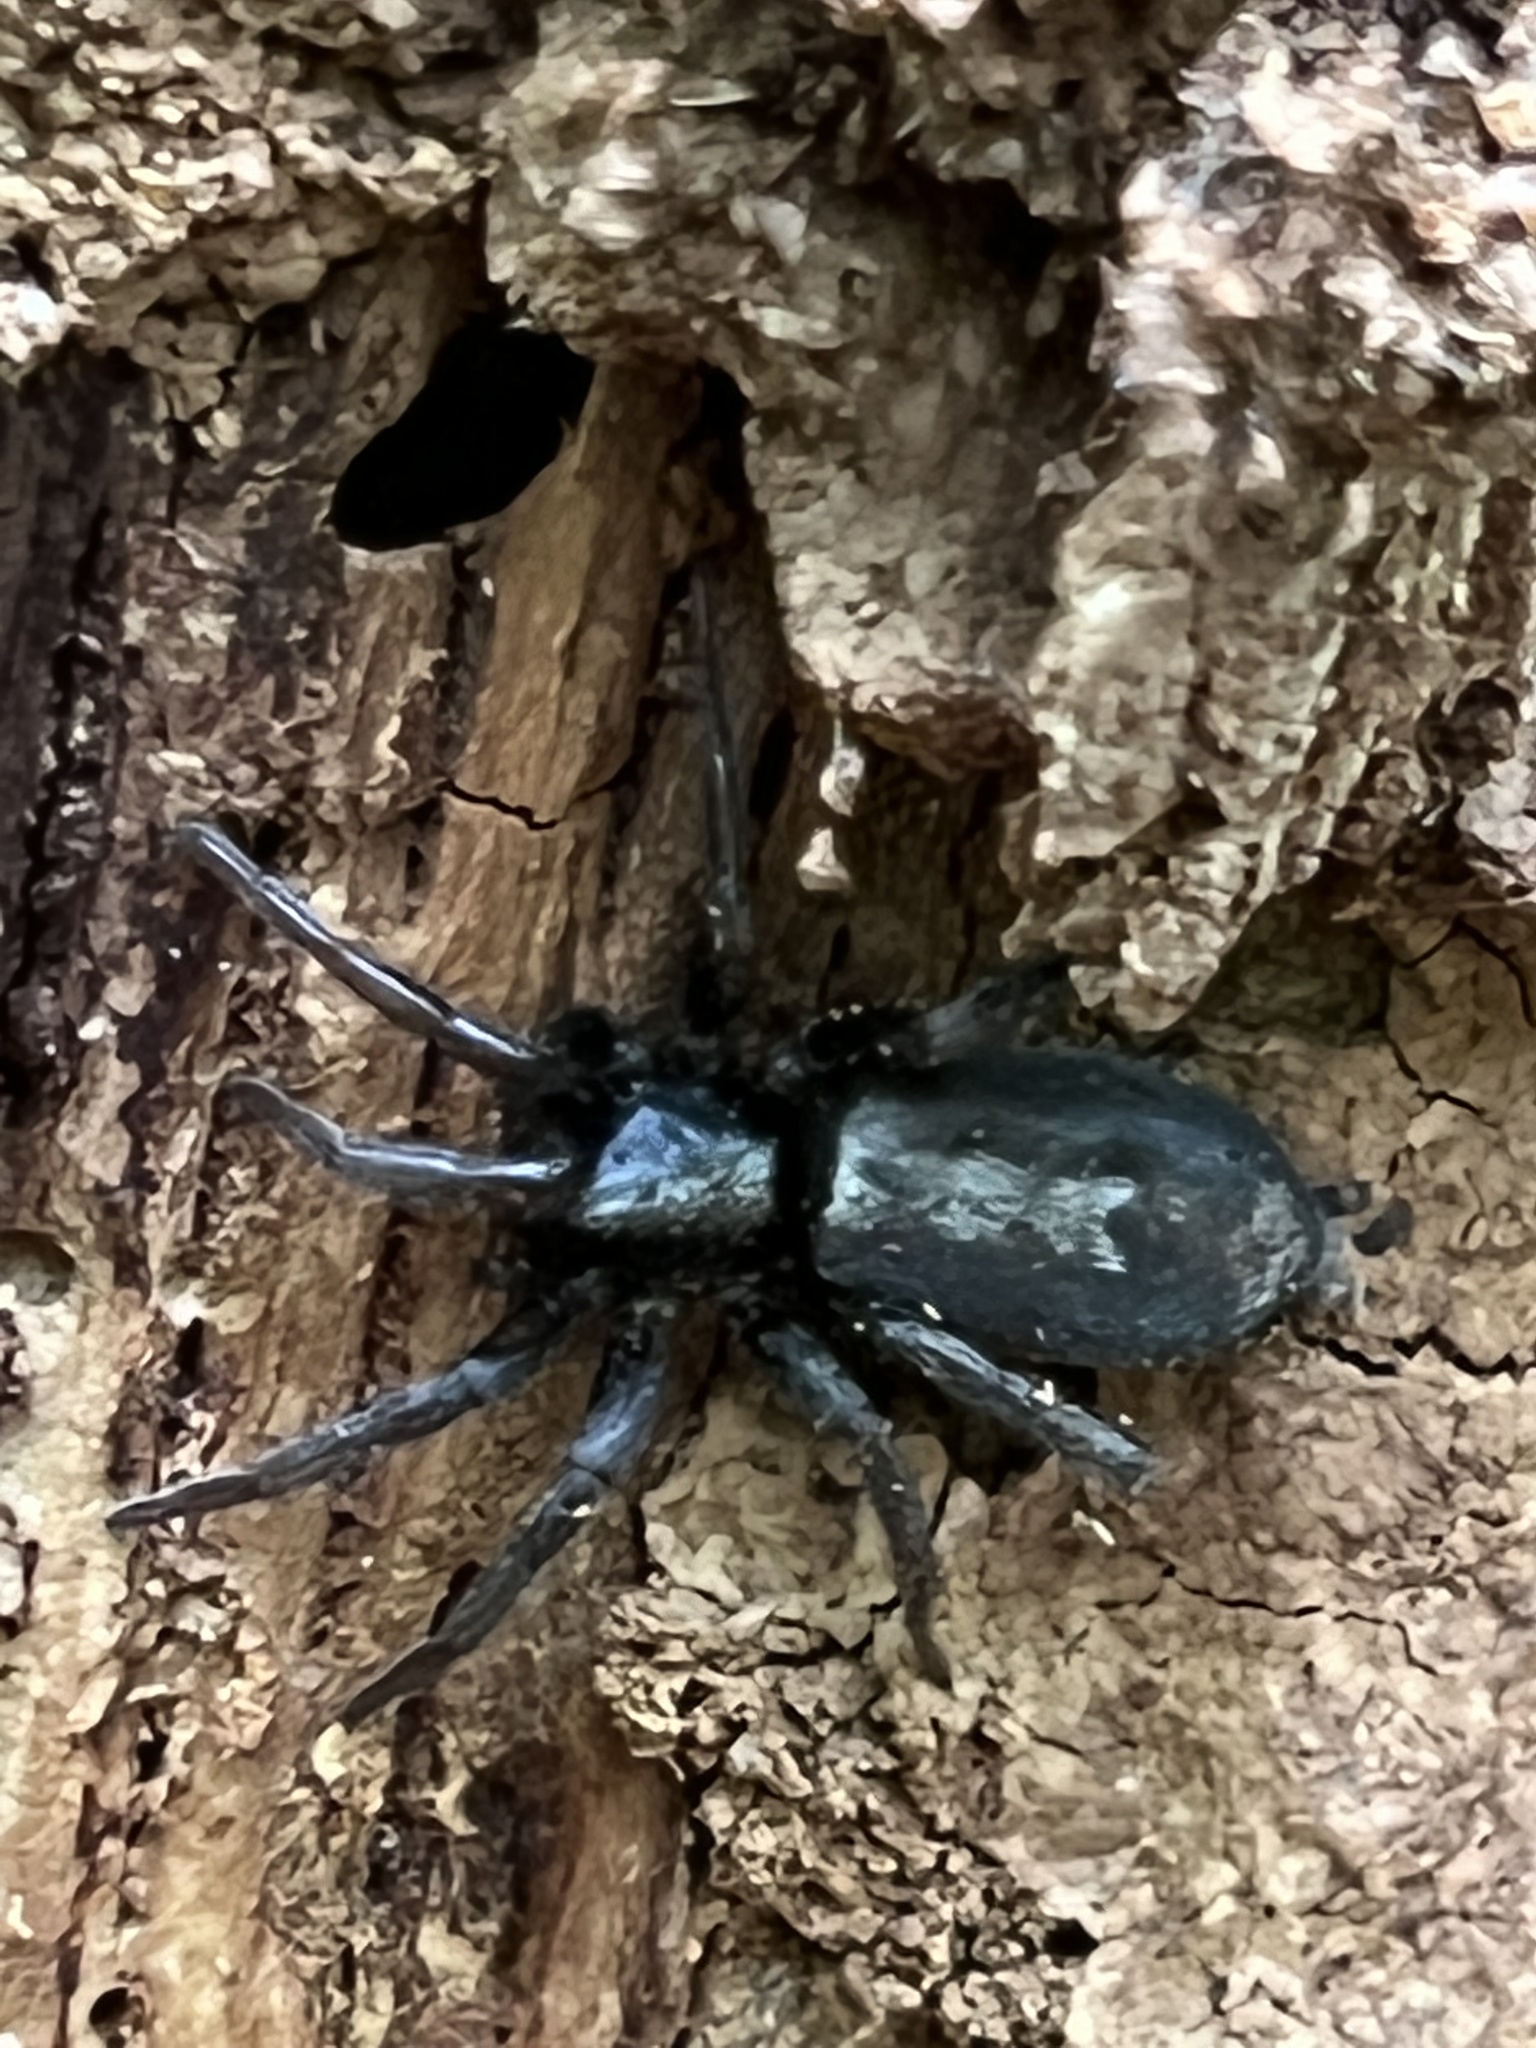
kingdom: Animalia
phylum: Arthropoda
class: Arachnida
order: Araneae
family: Gnaphosidae
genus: Herpyllus
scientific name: Herpyllus ecclesiasticus
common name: Eastern parson spider
